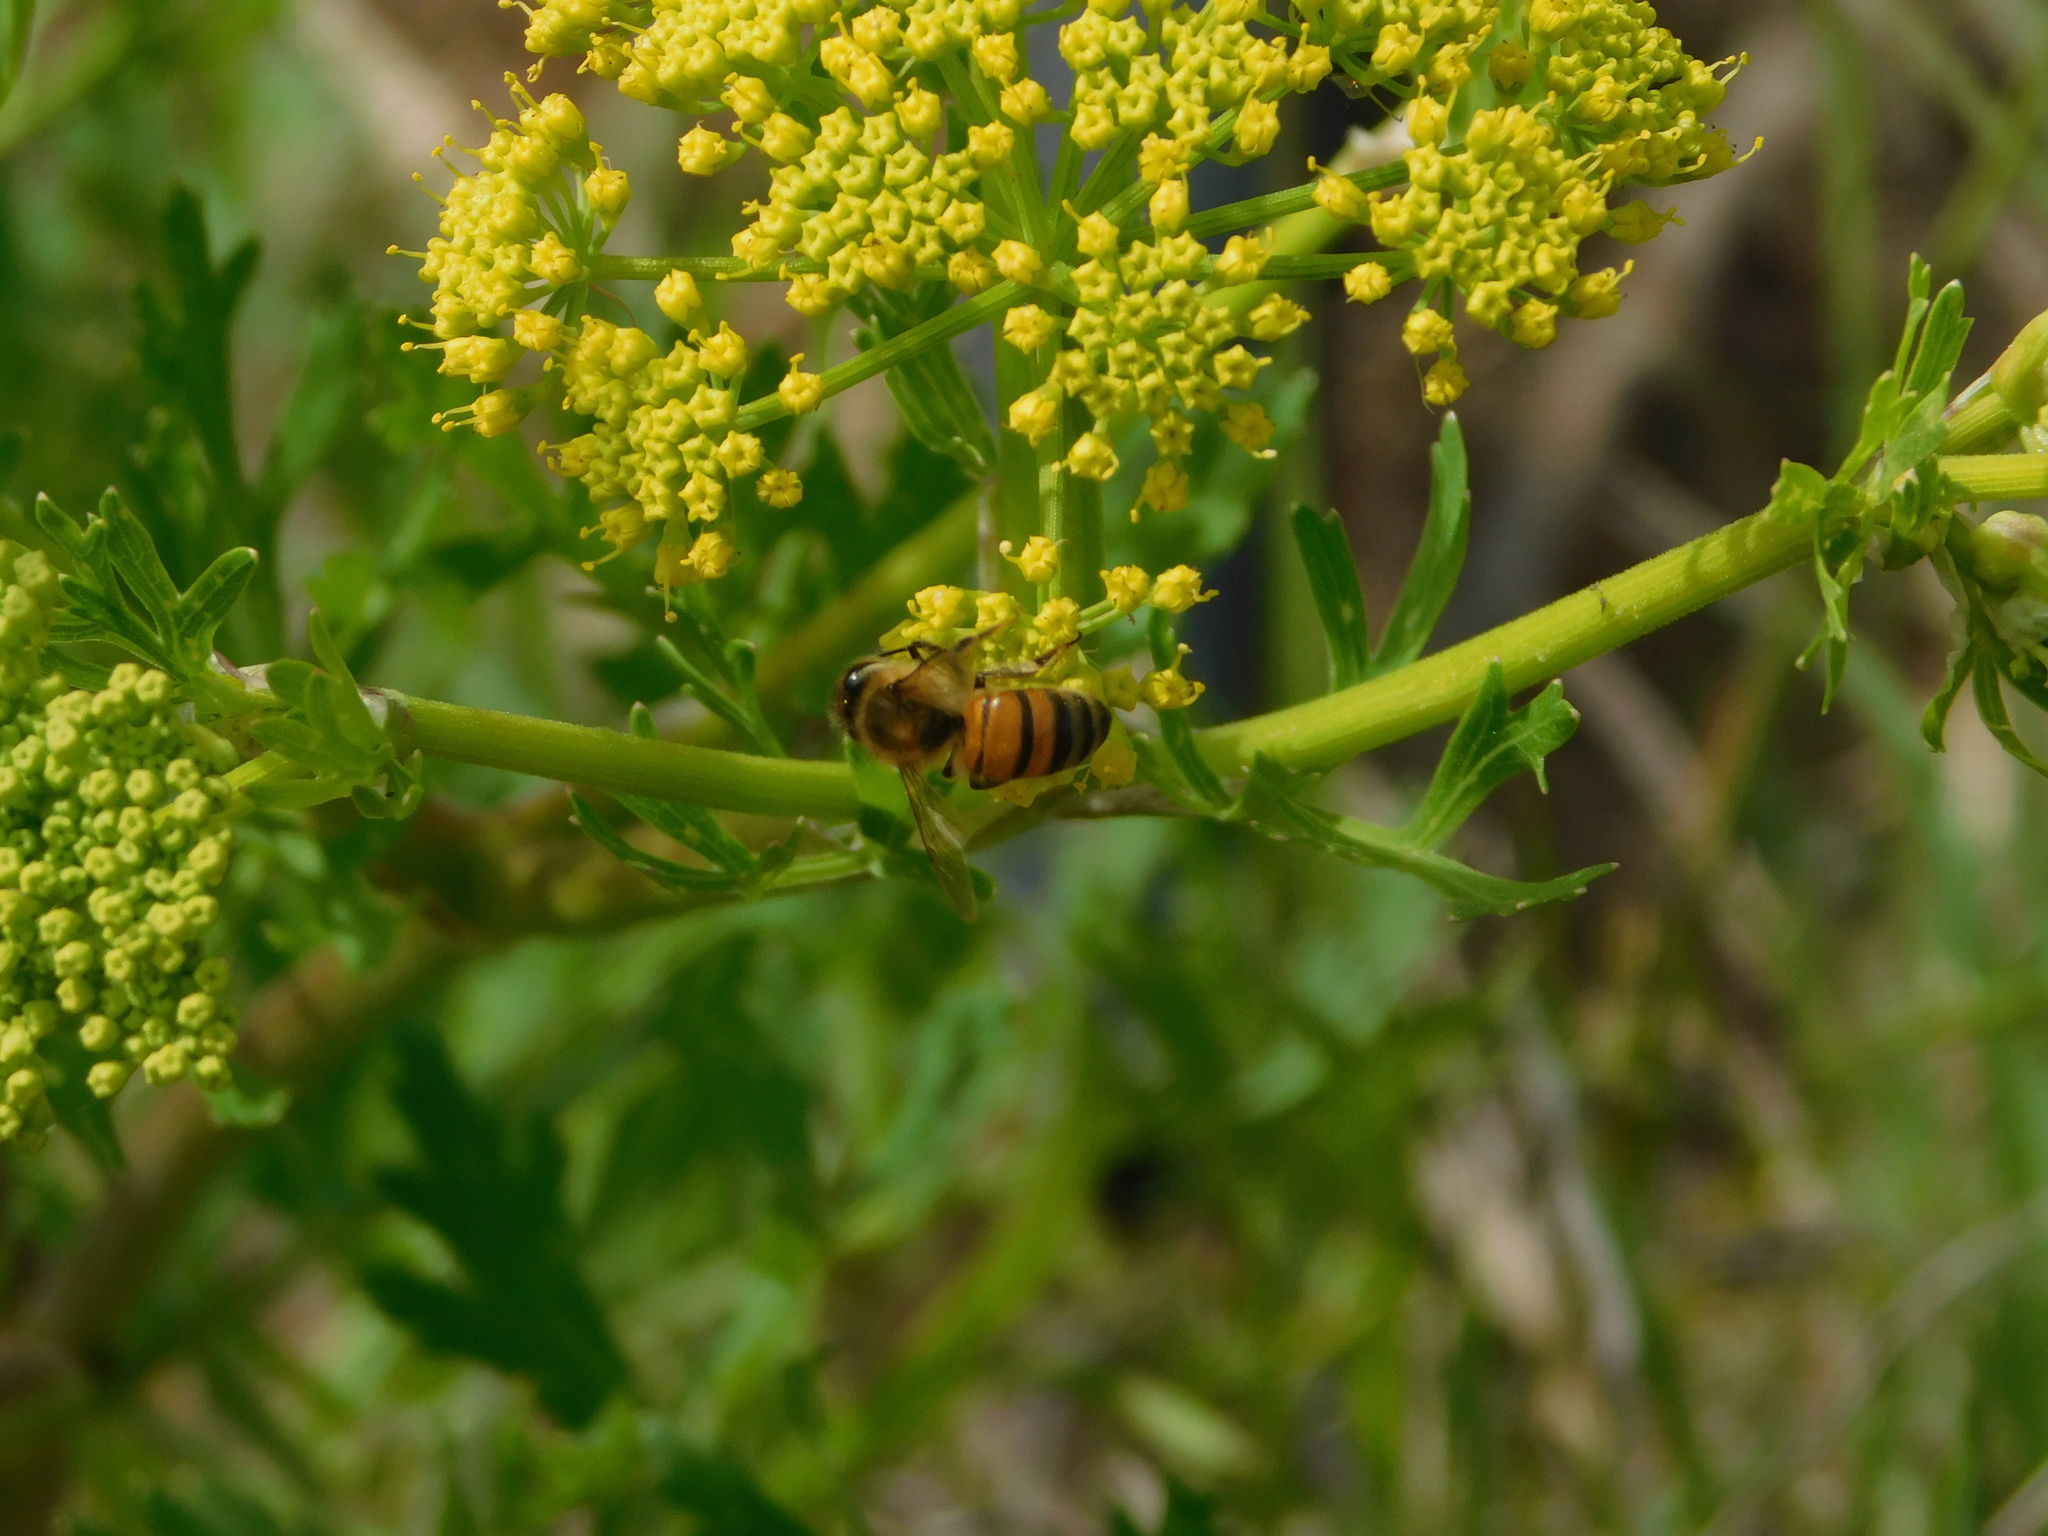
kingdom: Animalia
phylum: Arthropoda
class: Insecta
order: Hymenoptera
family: Apidae
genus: Apis
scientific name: Apis mellifera
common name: Honey bee
